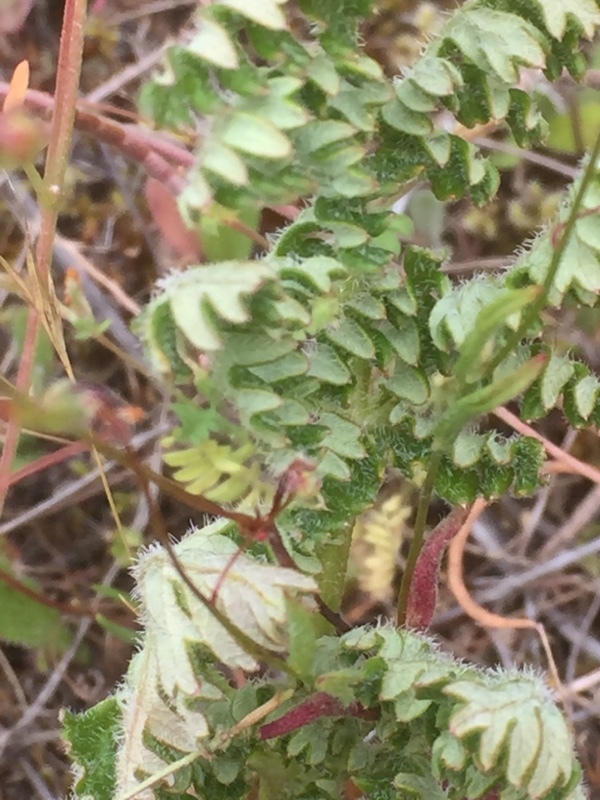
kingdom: Plantae
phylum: Tracheophyta
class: Magnoliopsida
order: Apiales
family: Apiaceae
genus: Thapsia
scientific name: Thapsia minor
